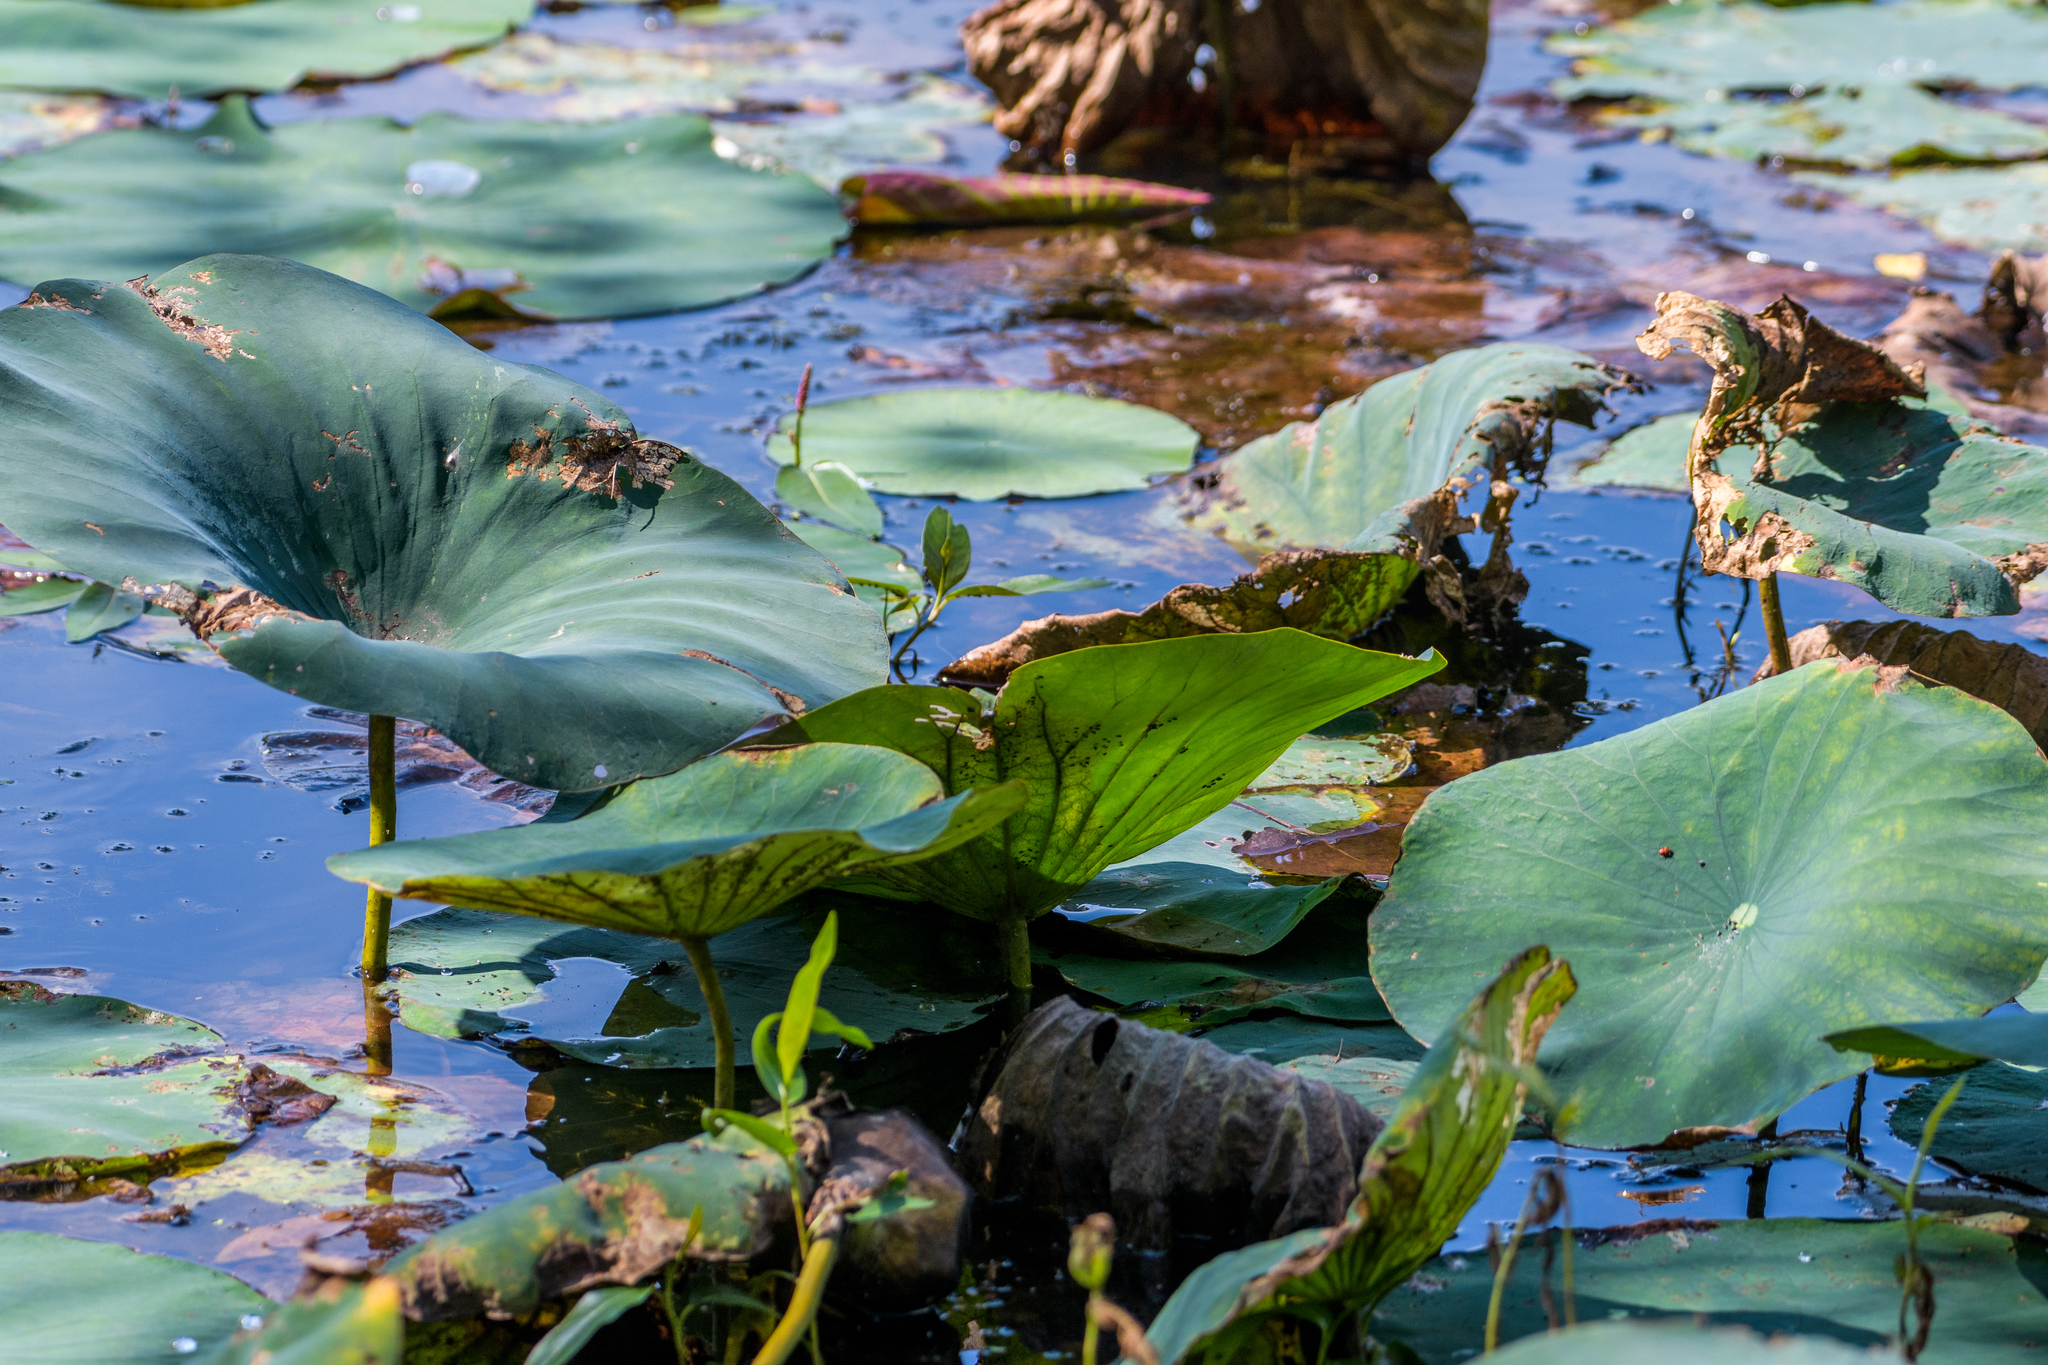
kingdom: Plantae
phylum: Tracheophyta
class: Magnoliopsida
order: Proteales
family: Nelumbonaceae
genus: Nelumbo
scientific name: Nelumbo lutea
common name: American lotus
